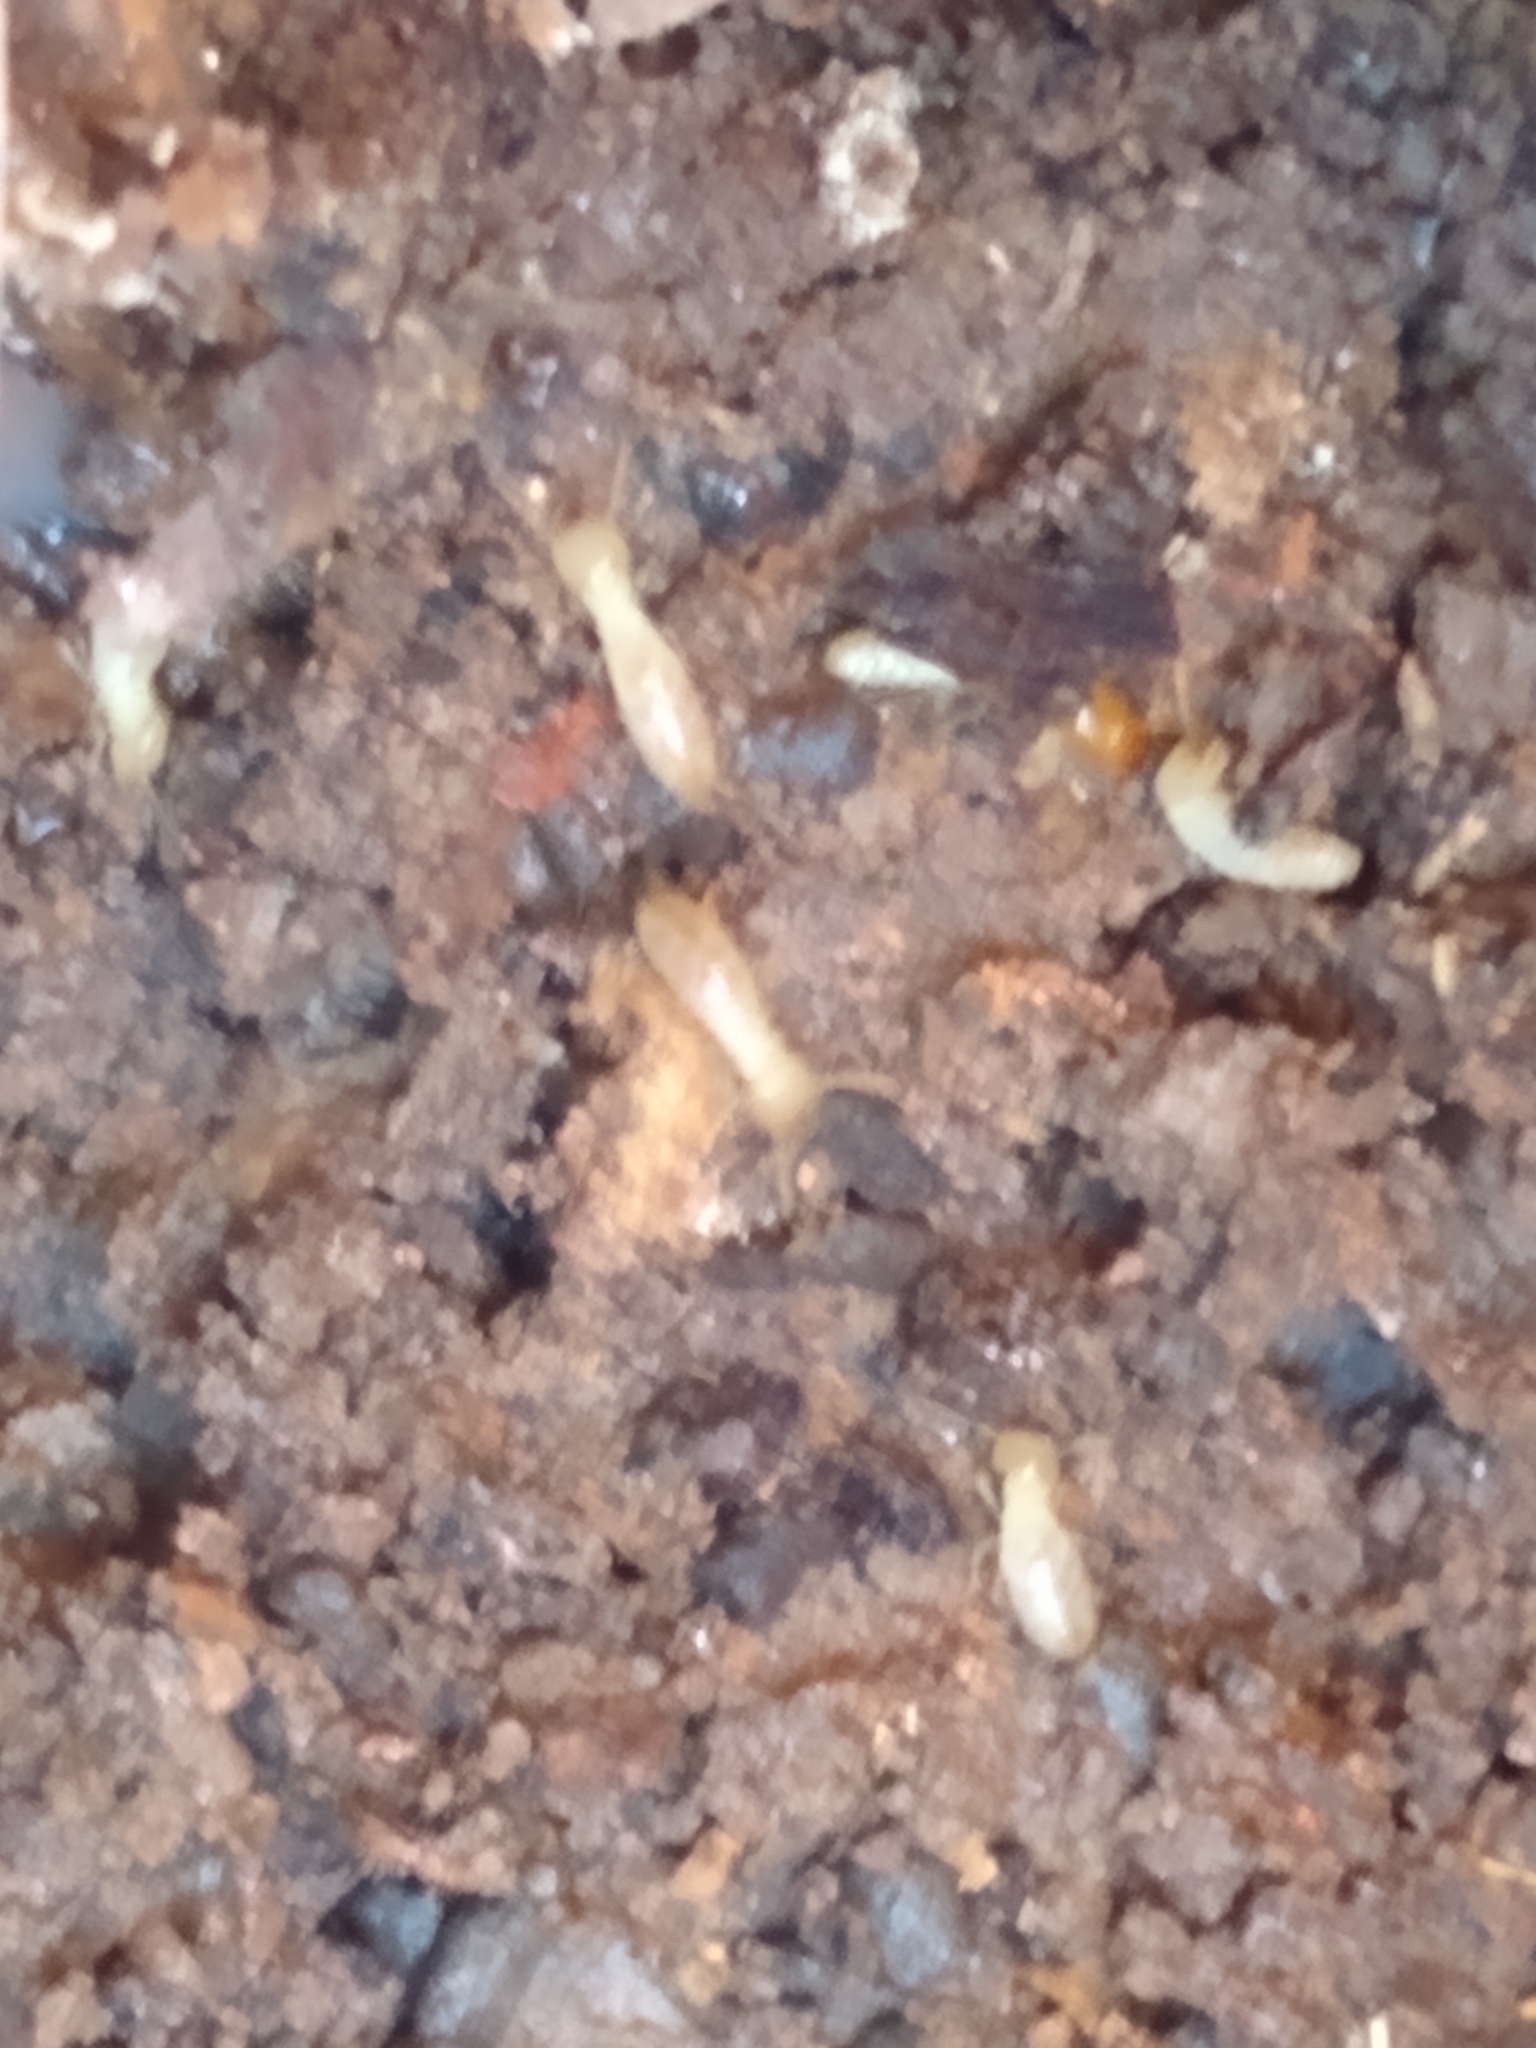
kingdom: Animalia
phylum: Arthropoda
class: Insecta
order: Blattodea
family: Rhinotermitidae
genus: Reticulitermes
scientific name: Reticulitermes flavipes
